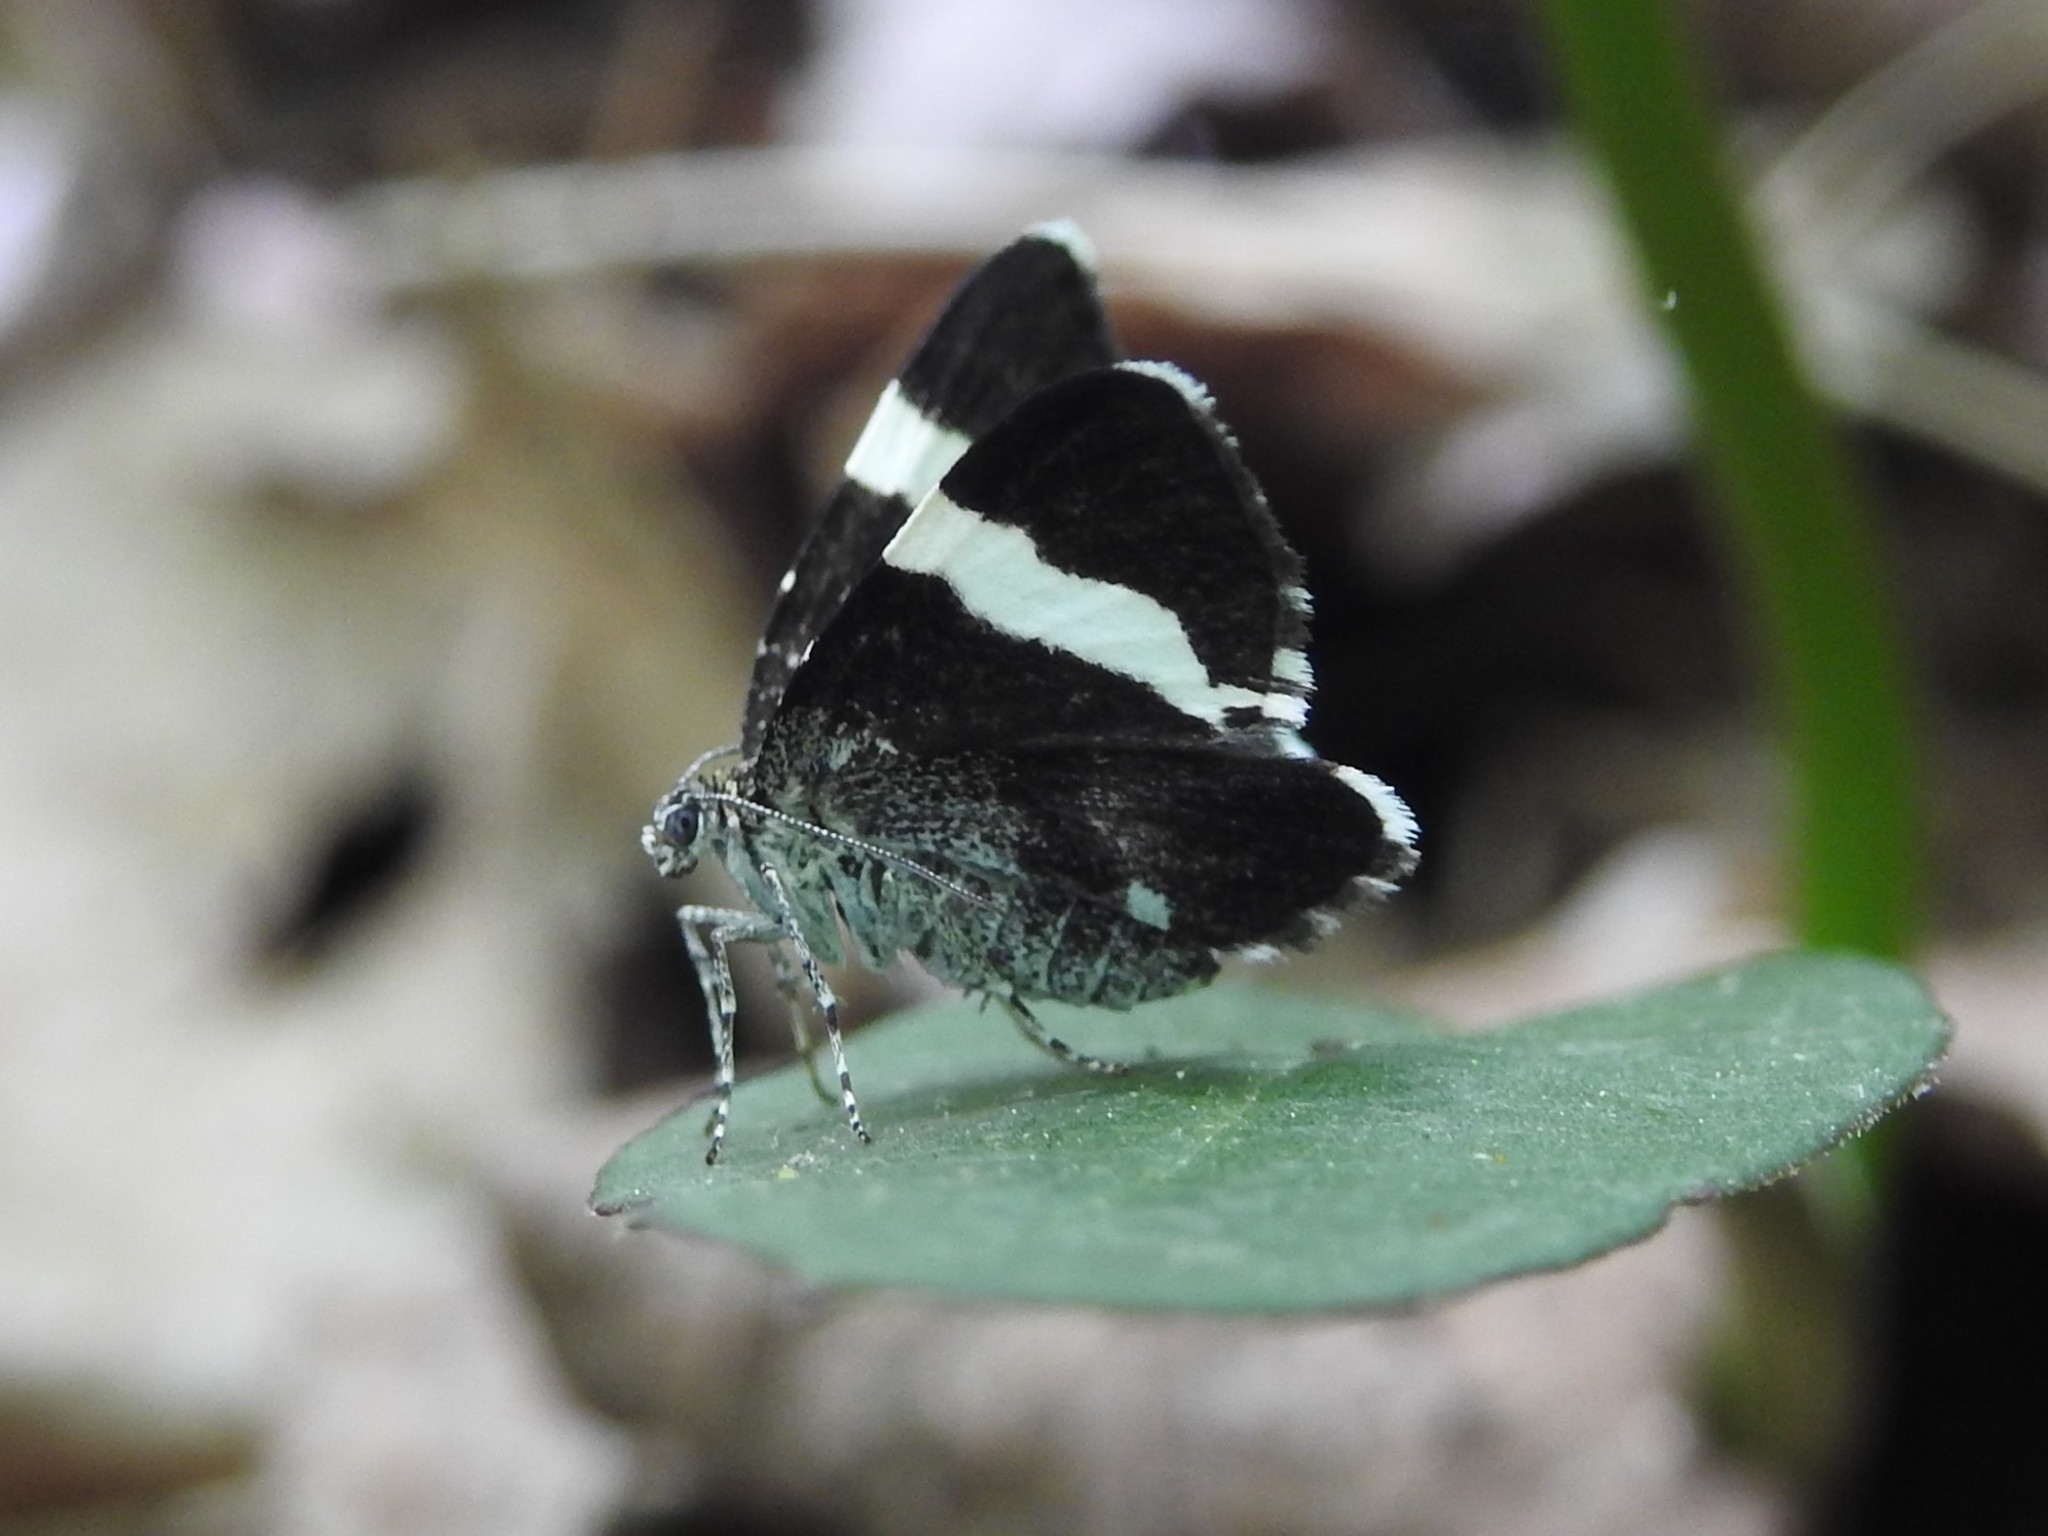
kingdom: Animalia
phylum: Arthropoda
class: Insecta
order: Lepidoptera
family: Geometridae
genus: Trichodezia
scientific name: Trichodezia albovittata
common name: White striped black
